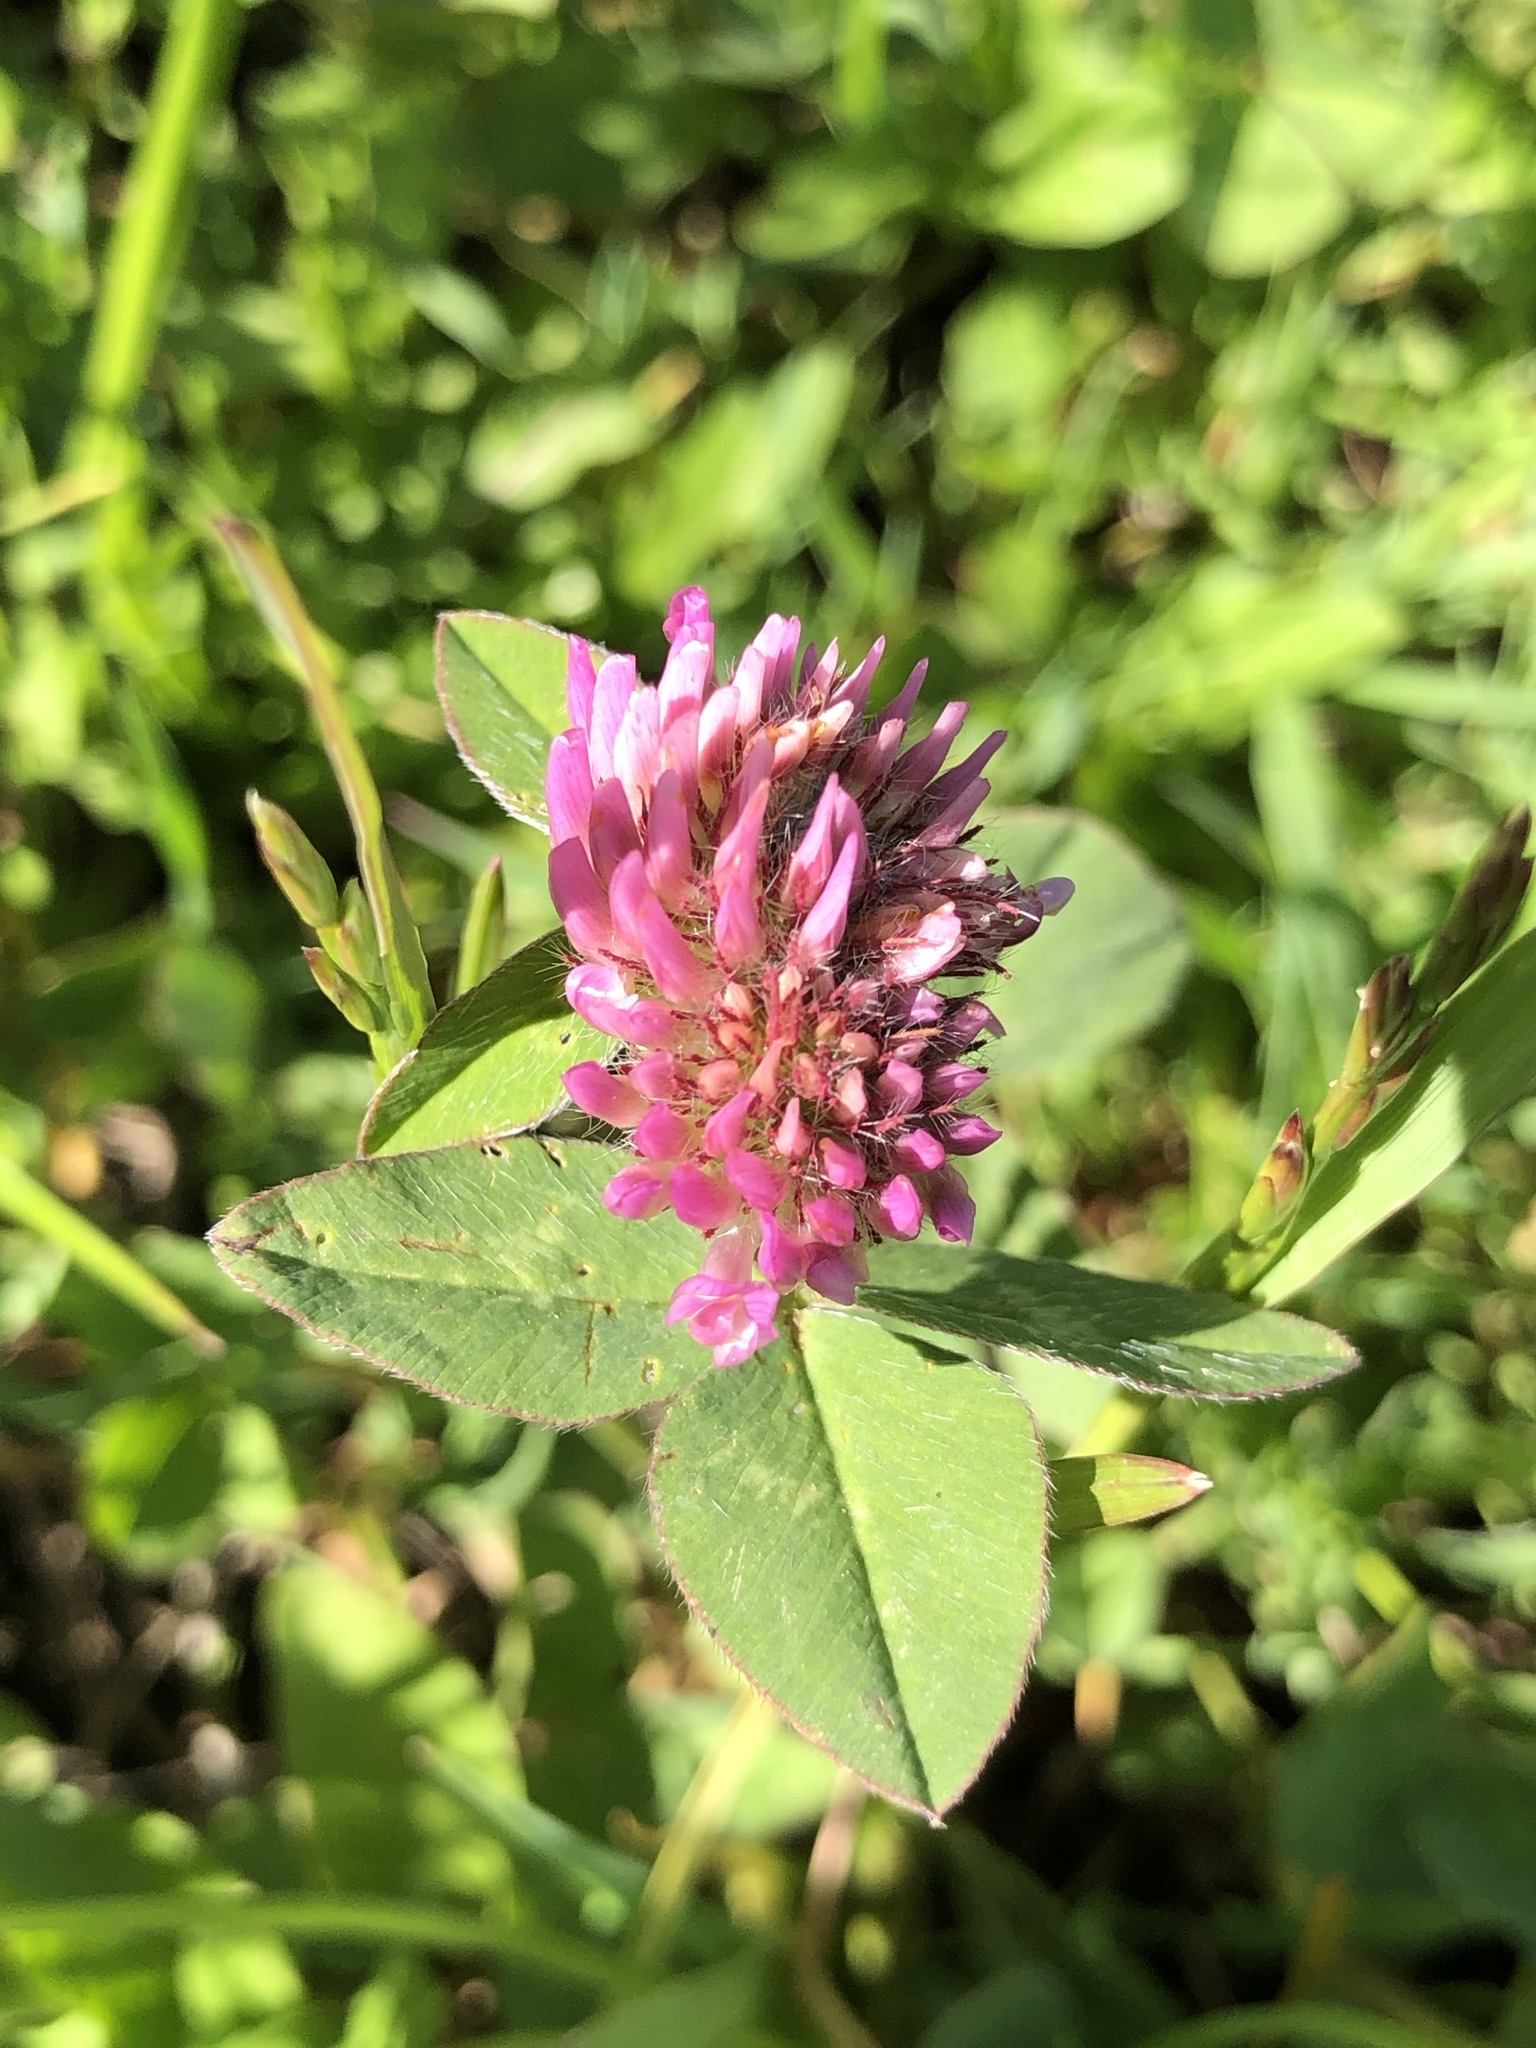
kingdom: Plantae
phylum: Tracheophyta
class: Magnoliopsida
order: Fabales
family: Fabaceae
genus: Trifolium
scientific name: Trifolium pratense
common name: Red clover
